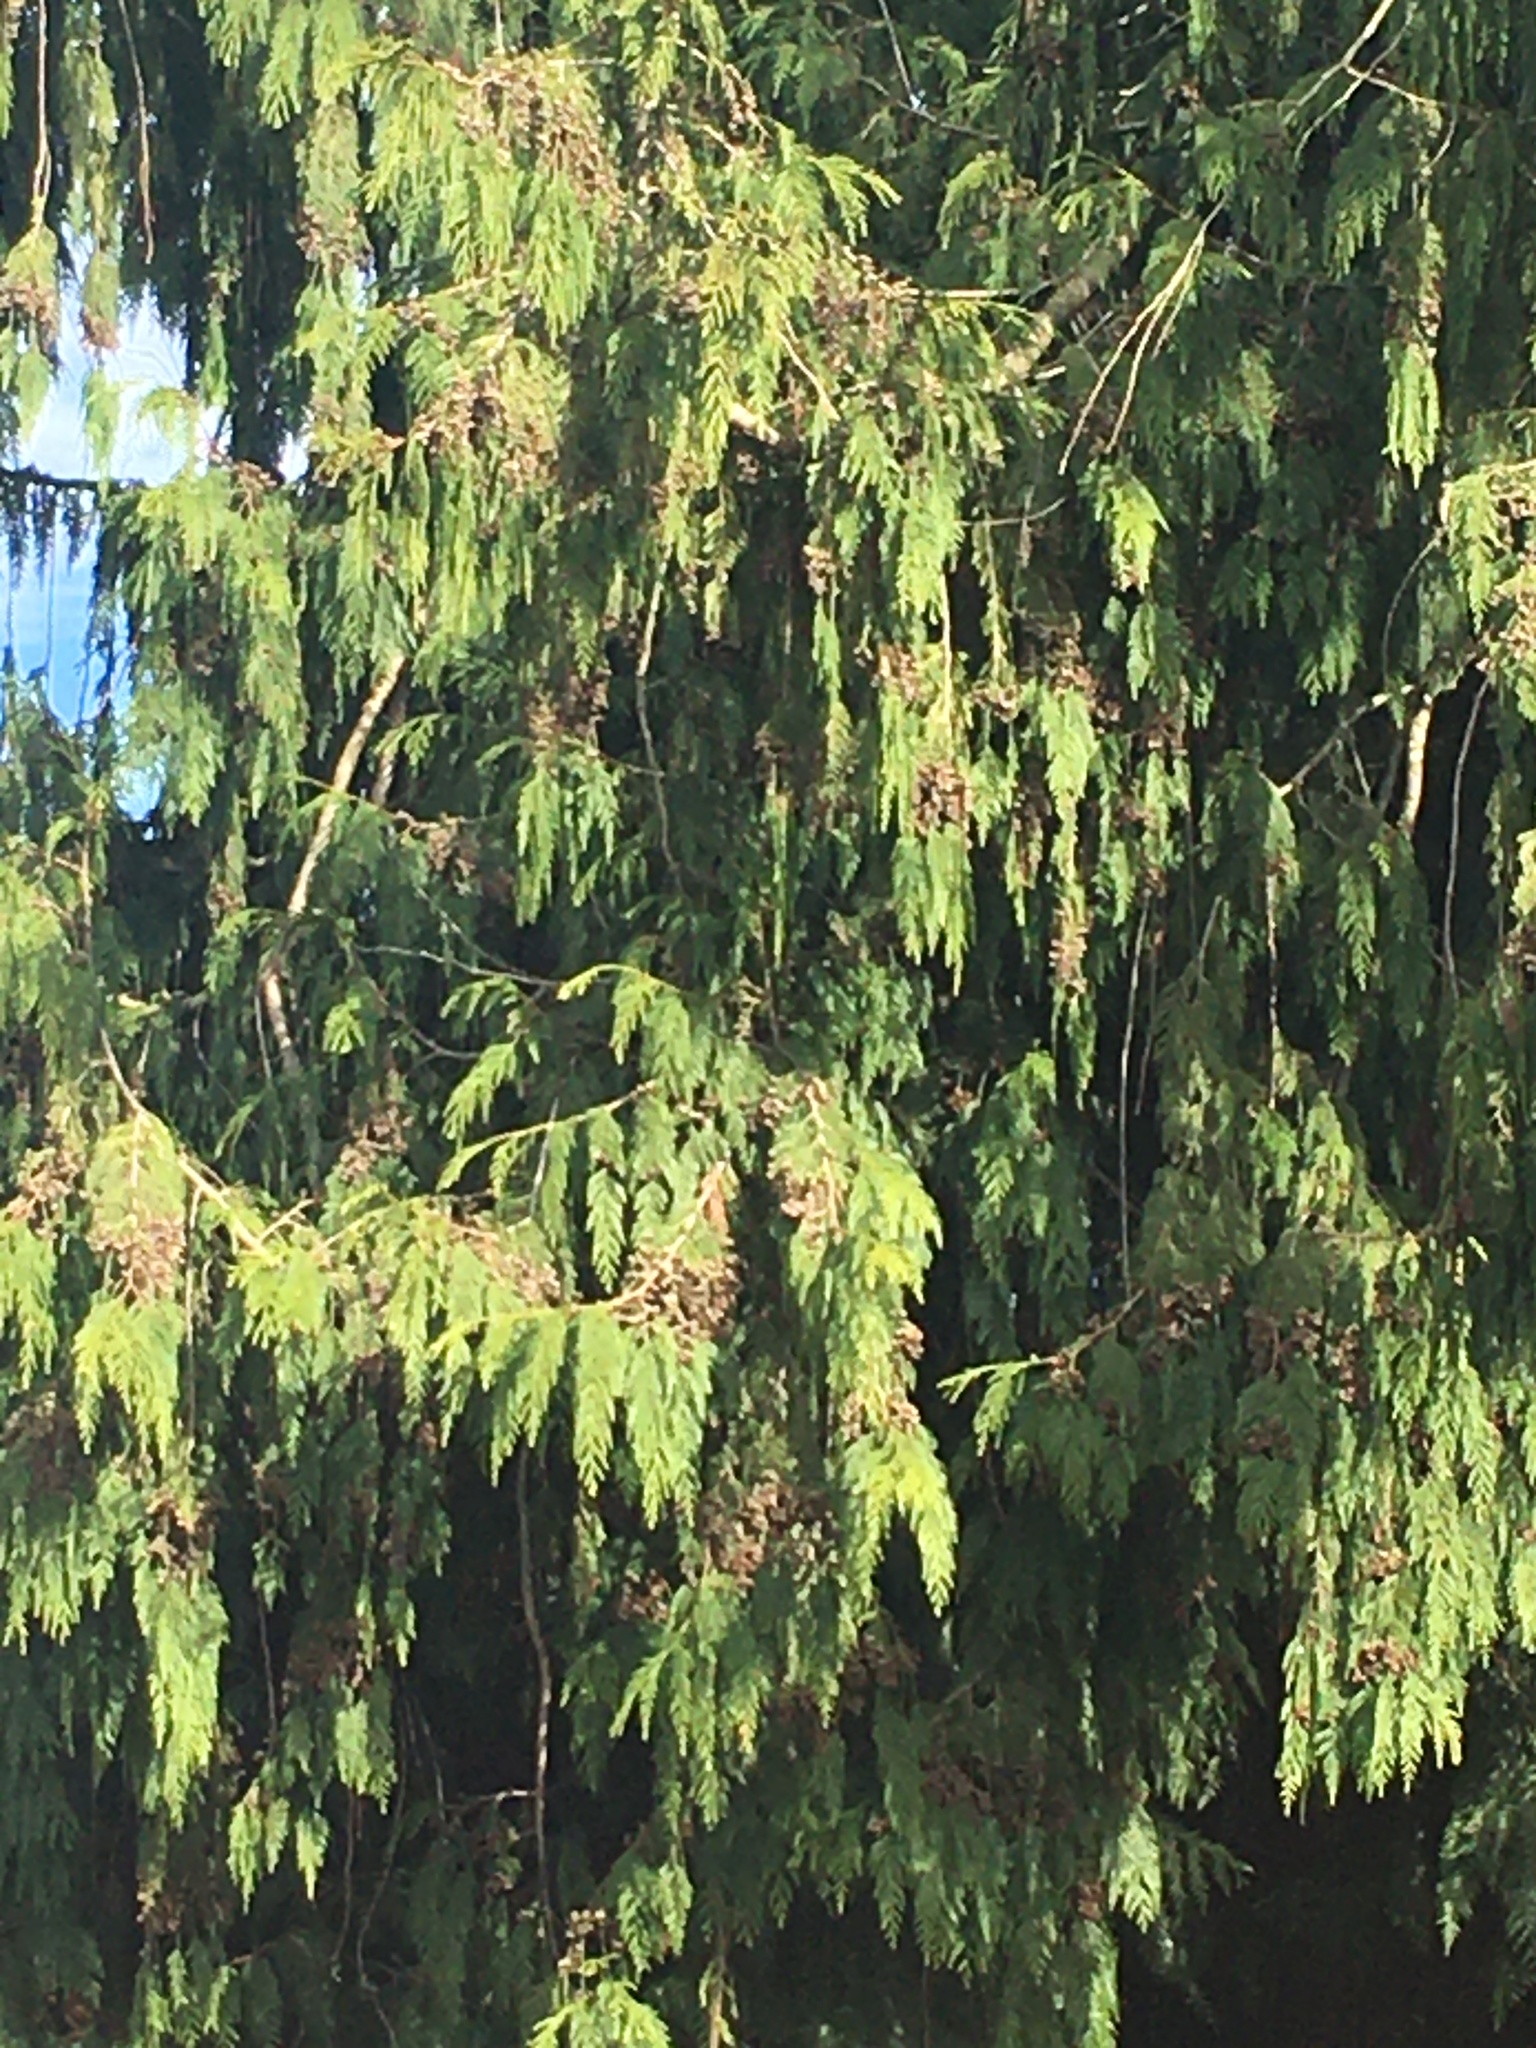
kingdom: Plantae
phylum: Tracheophyta
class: Pinopsida
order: Pinales
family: Cupressaceae
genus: Thuja
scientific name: Thuja plicata
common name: Western red-cedar
